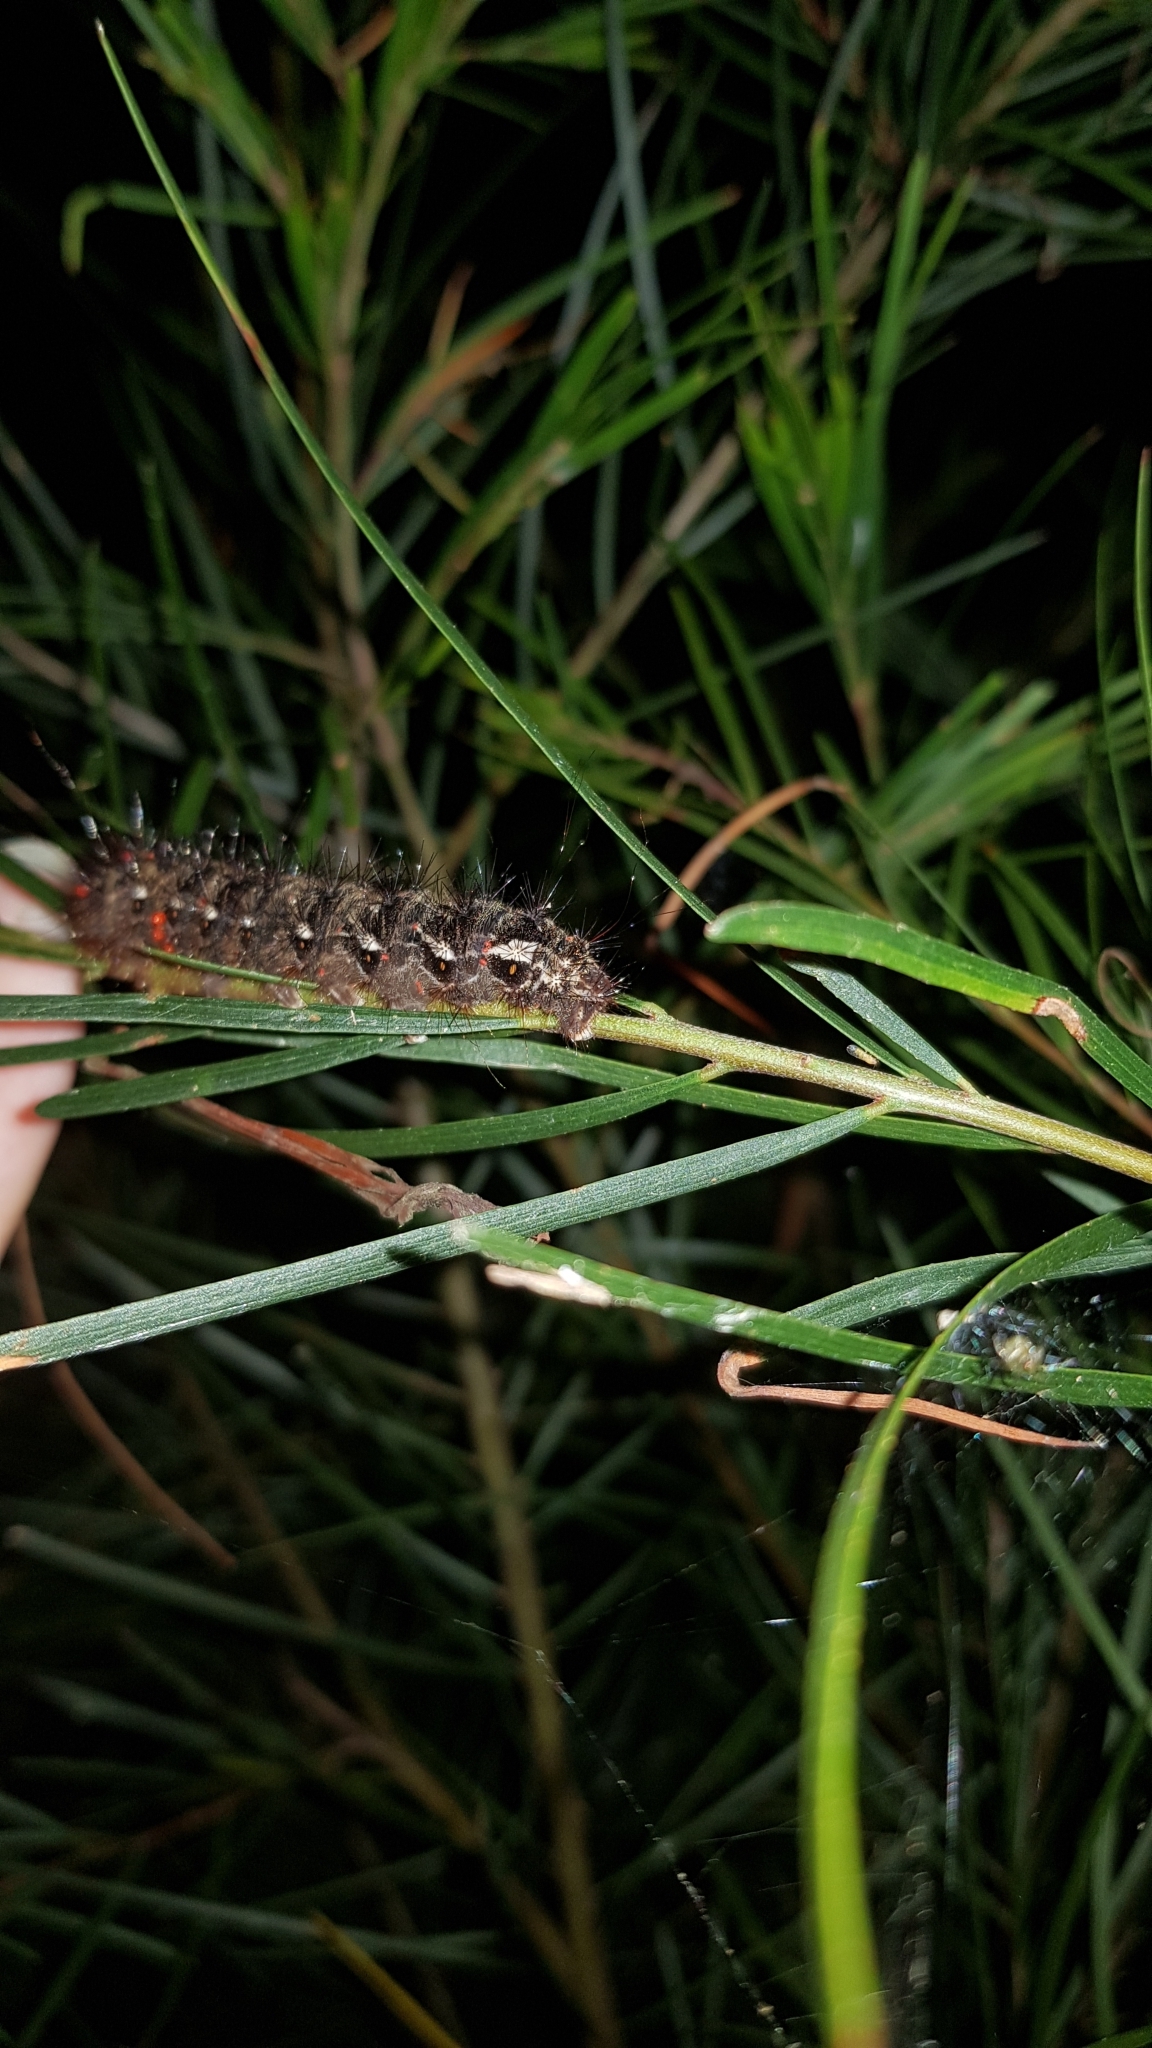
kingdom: Animalia
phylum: Arthropoda
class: Insecta
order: Lepidoptera
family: Anthelidae
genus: Chelepteryx
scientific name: Chelepteryx chalepteryx
